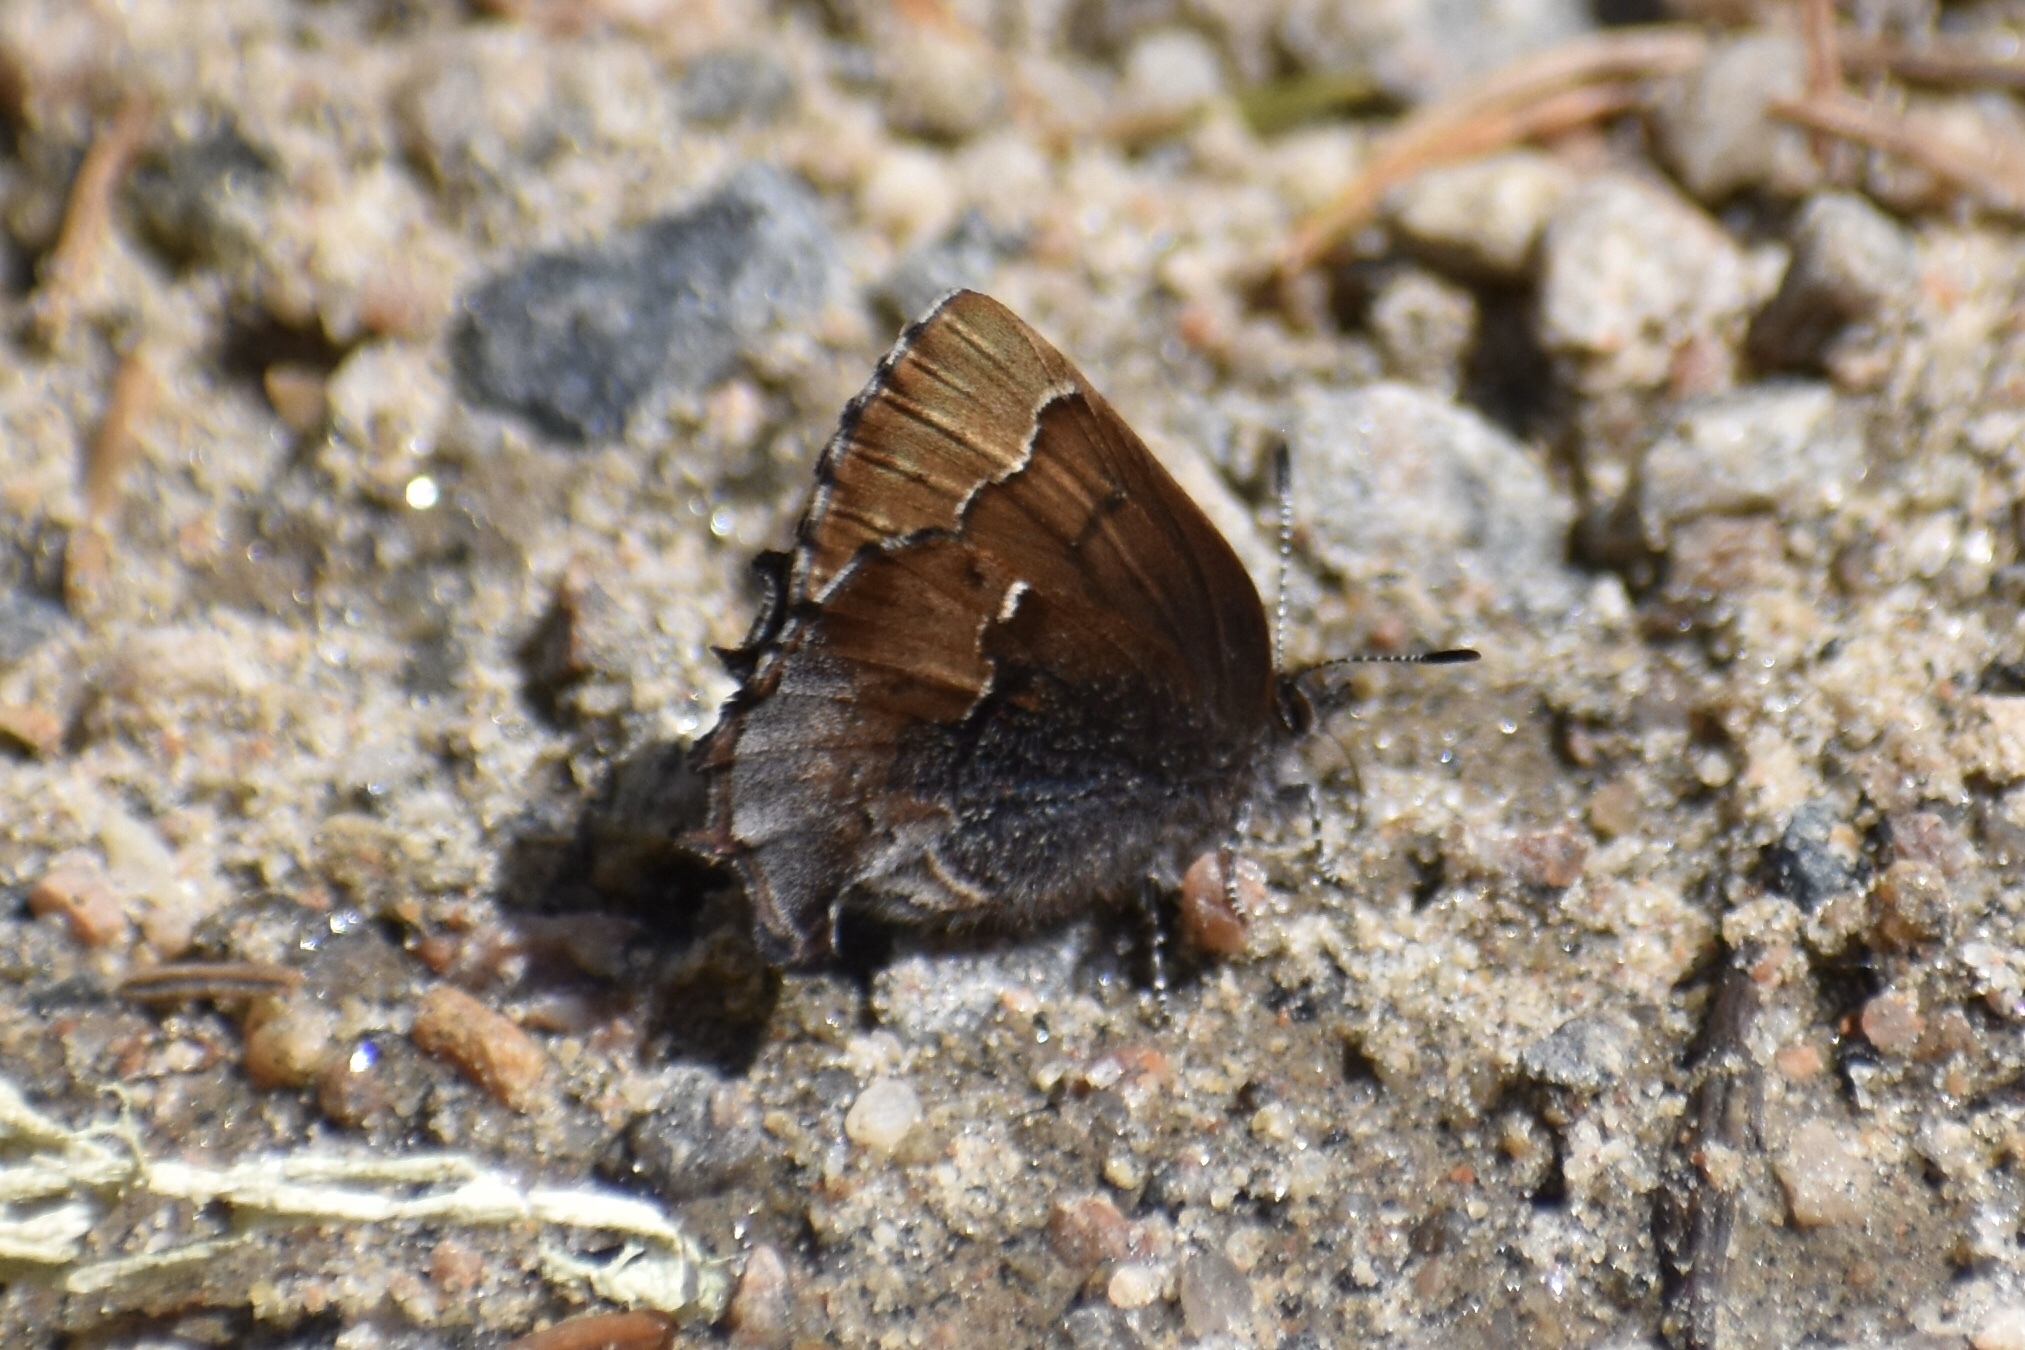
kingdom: Animalia
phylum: Arthropoda
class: Insecta
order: Lepidoptera
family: Lycaenidae
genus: Incisalia
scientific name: Incisalia henrici
